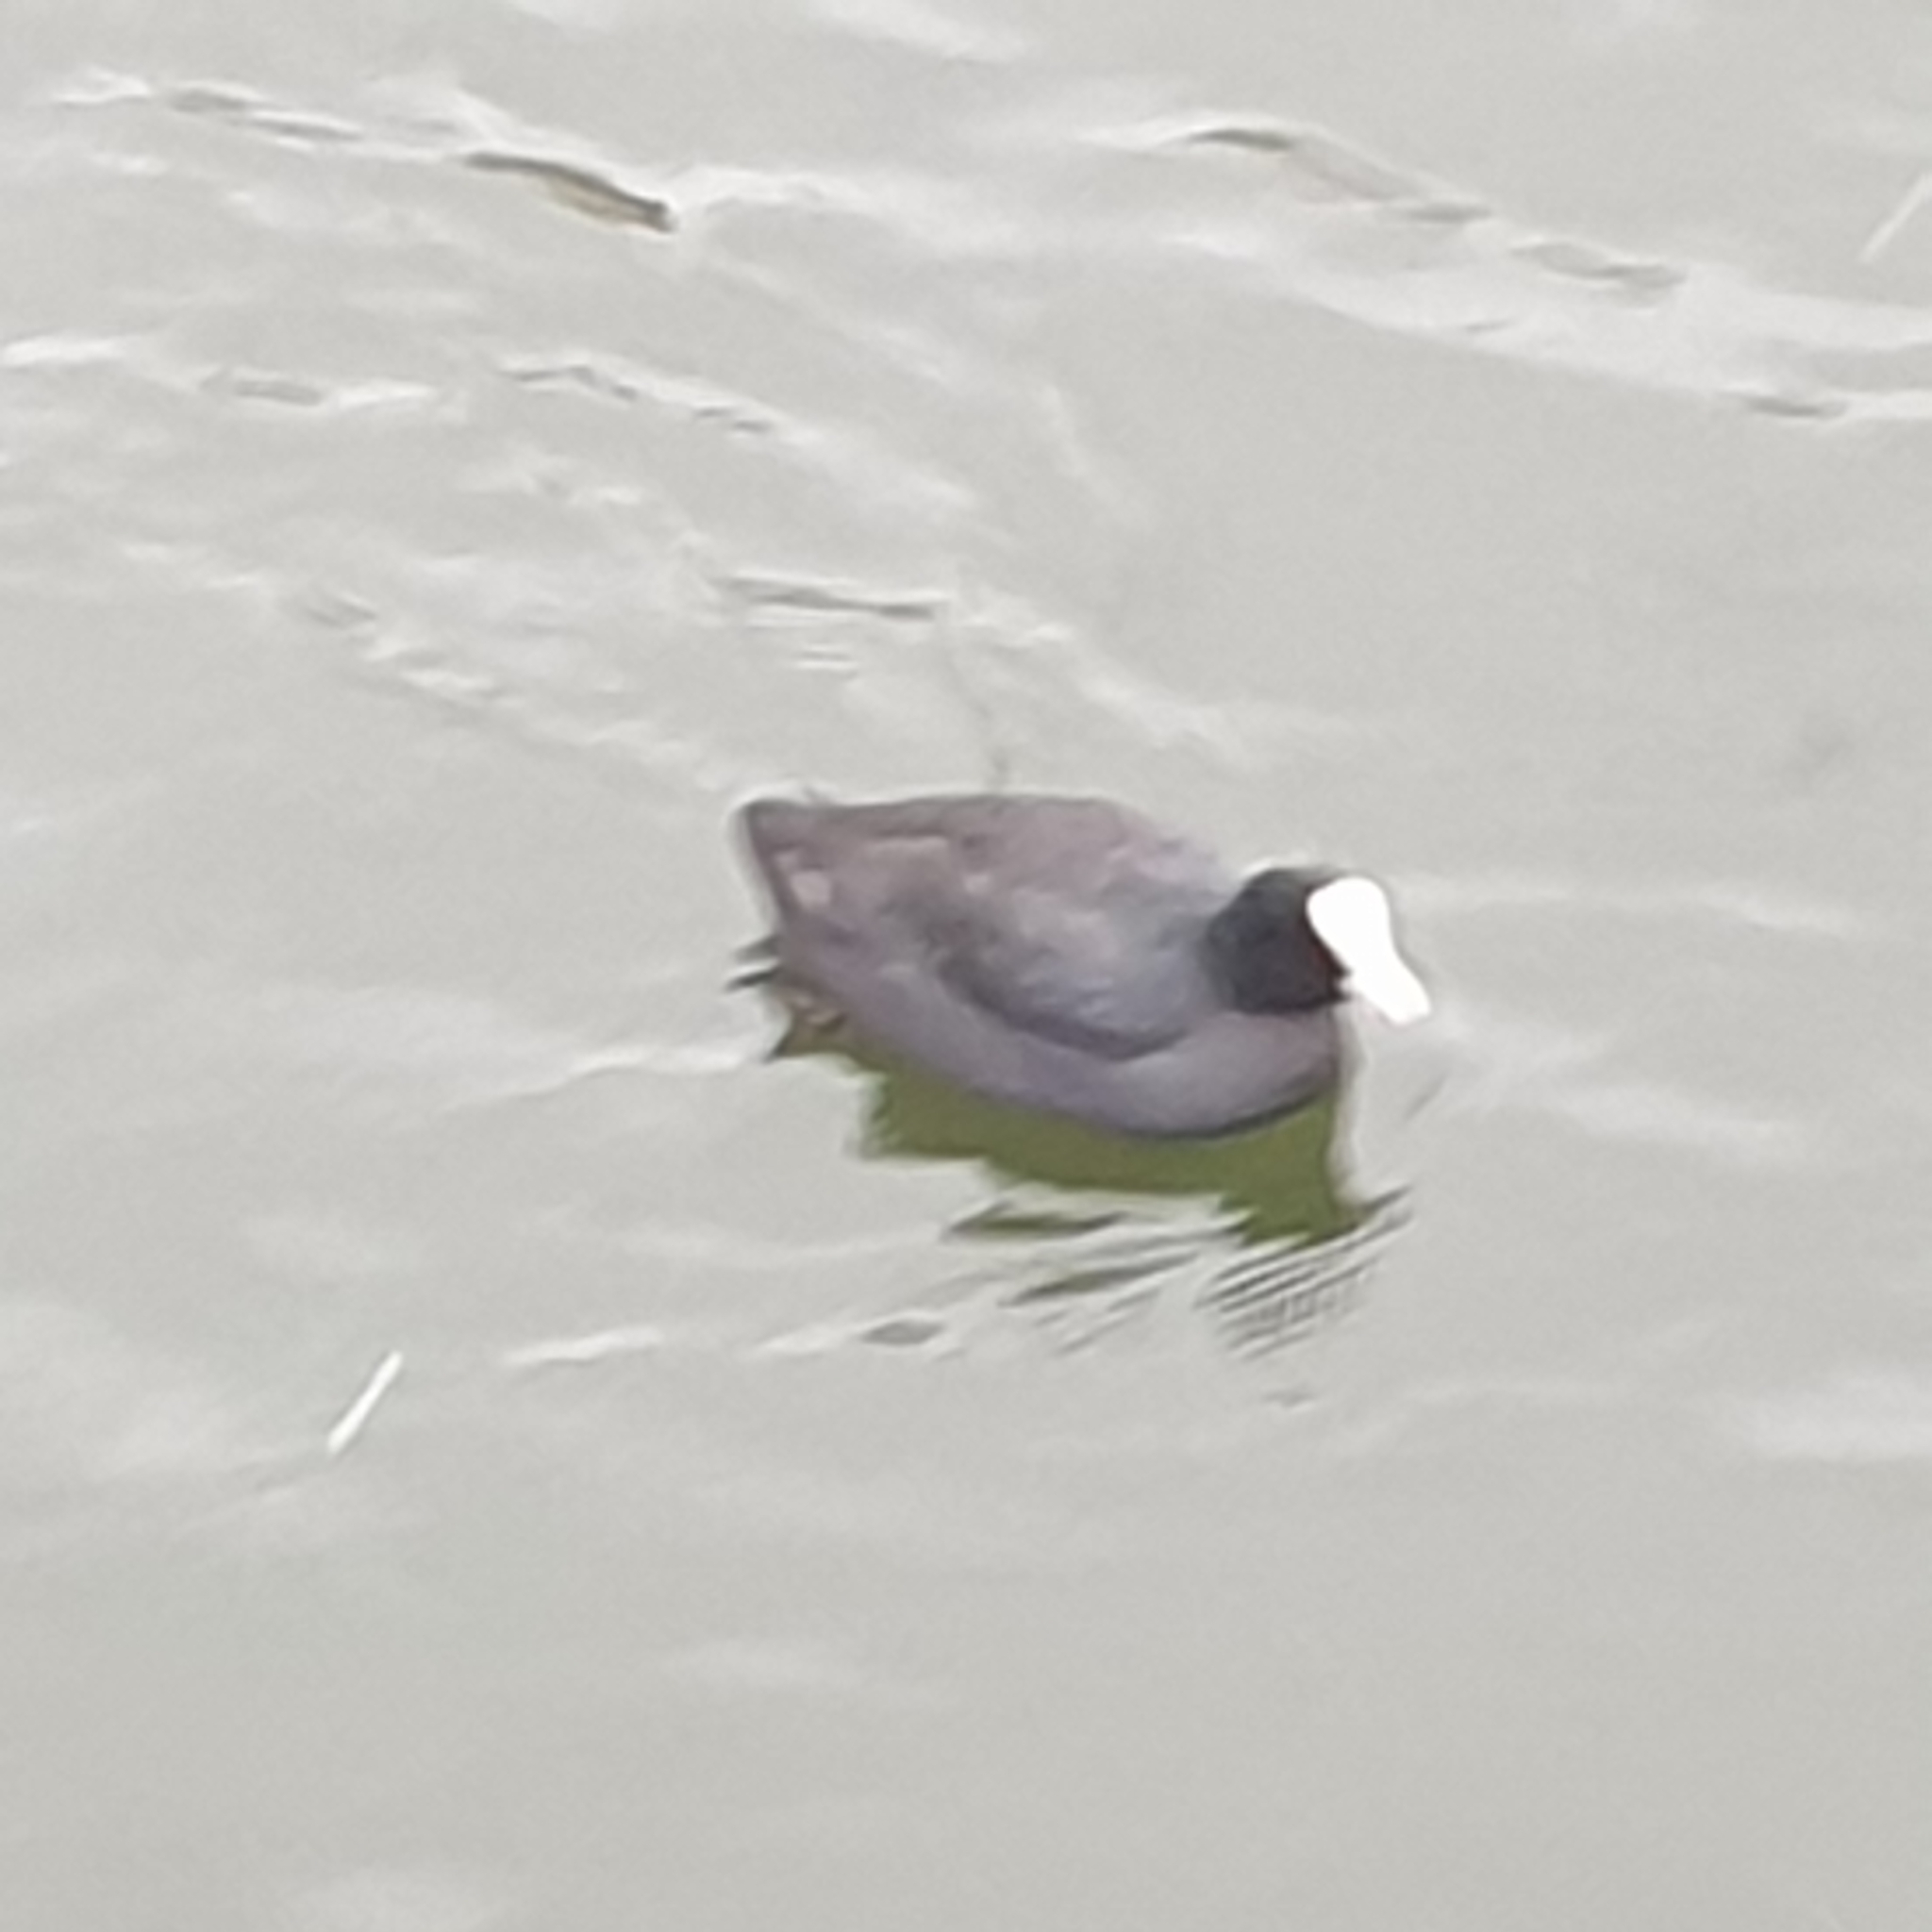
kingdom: Animalia
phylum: Chordata
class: Aves
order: Gruiformes
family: Rallidae
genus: Fulica
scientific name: Fulica atra
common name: Eurasian coot
